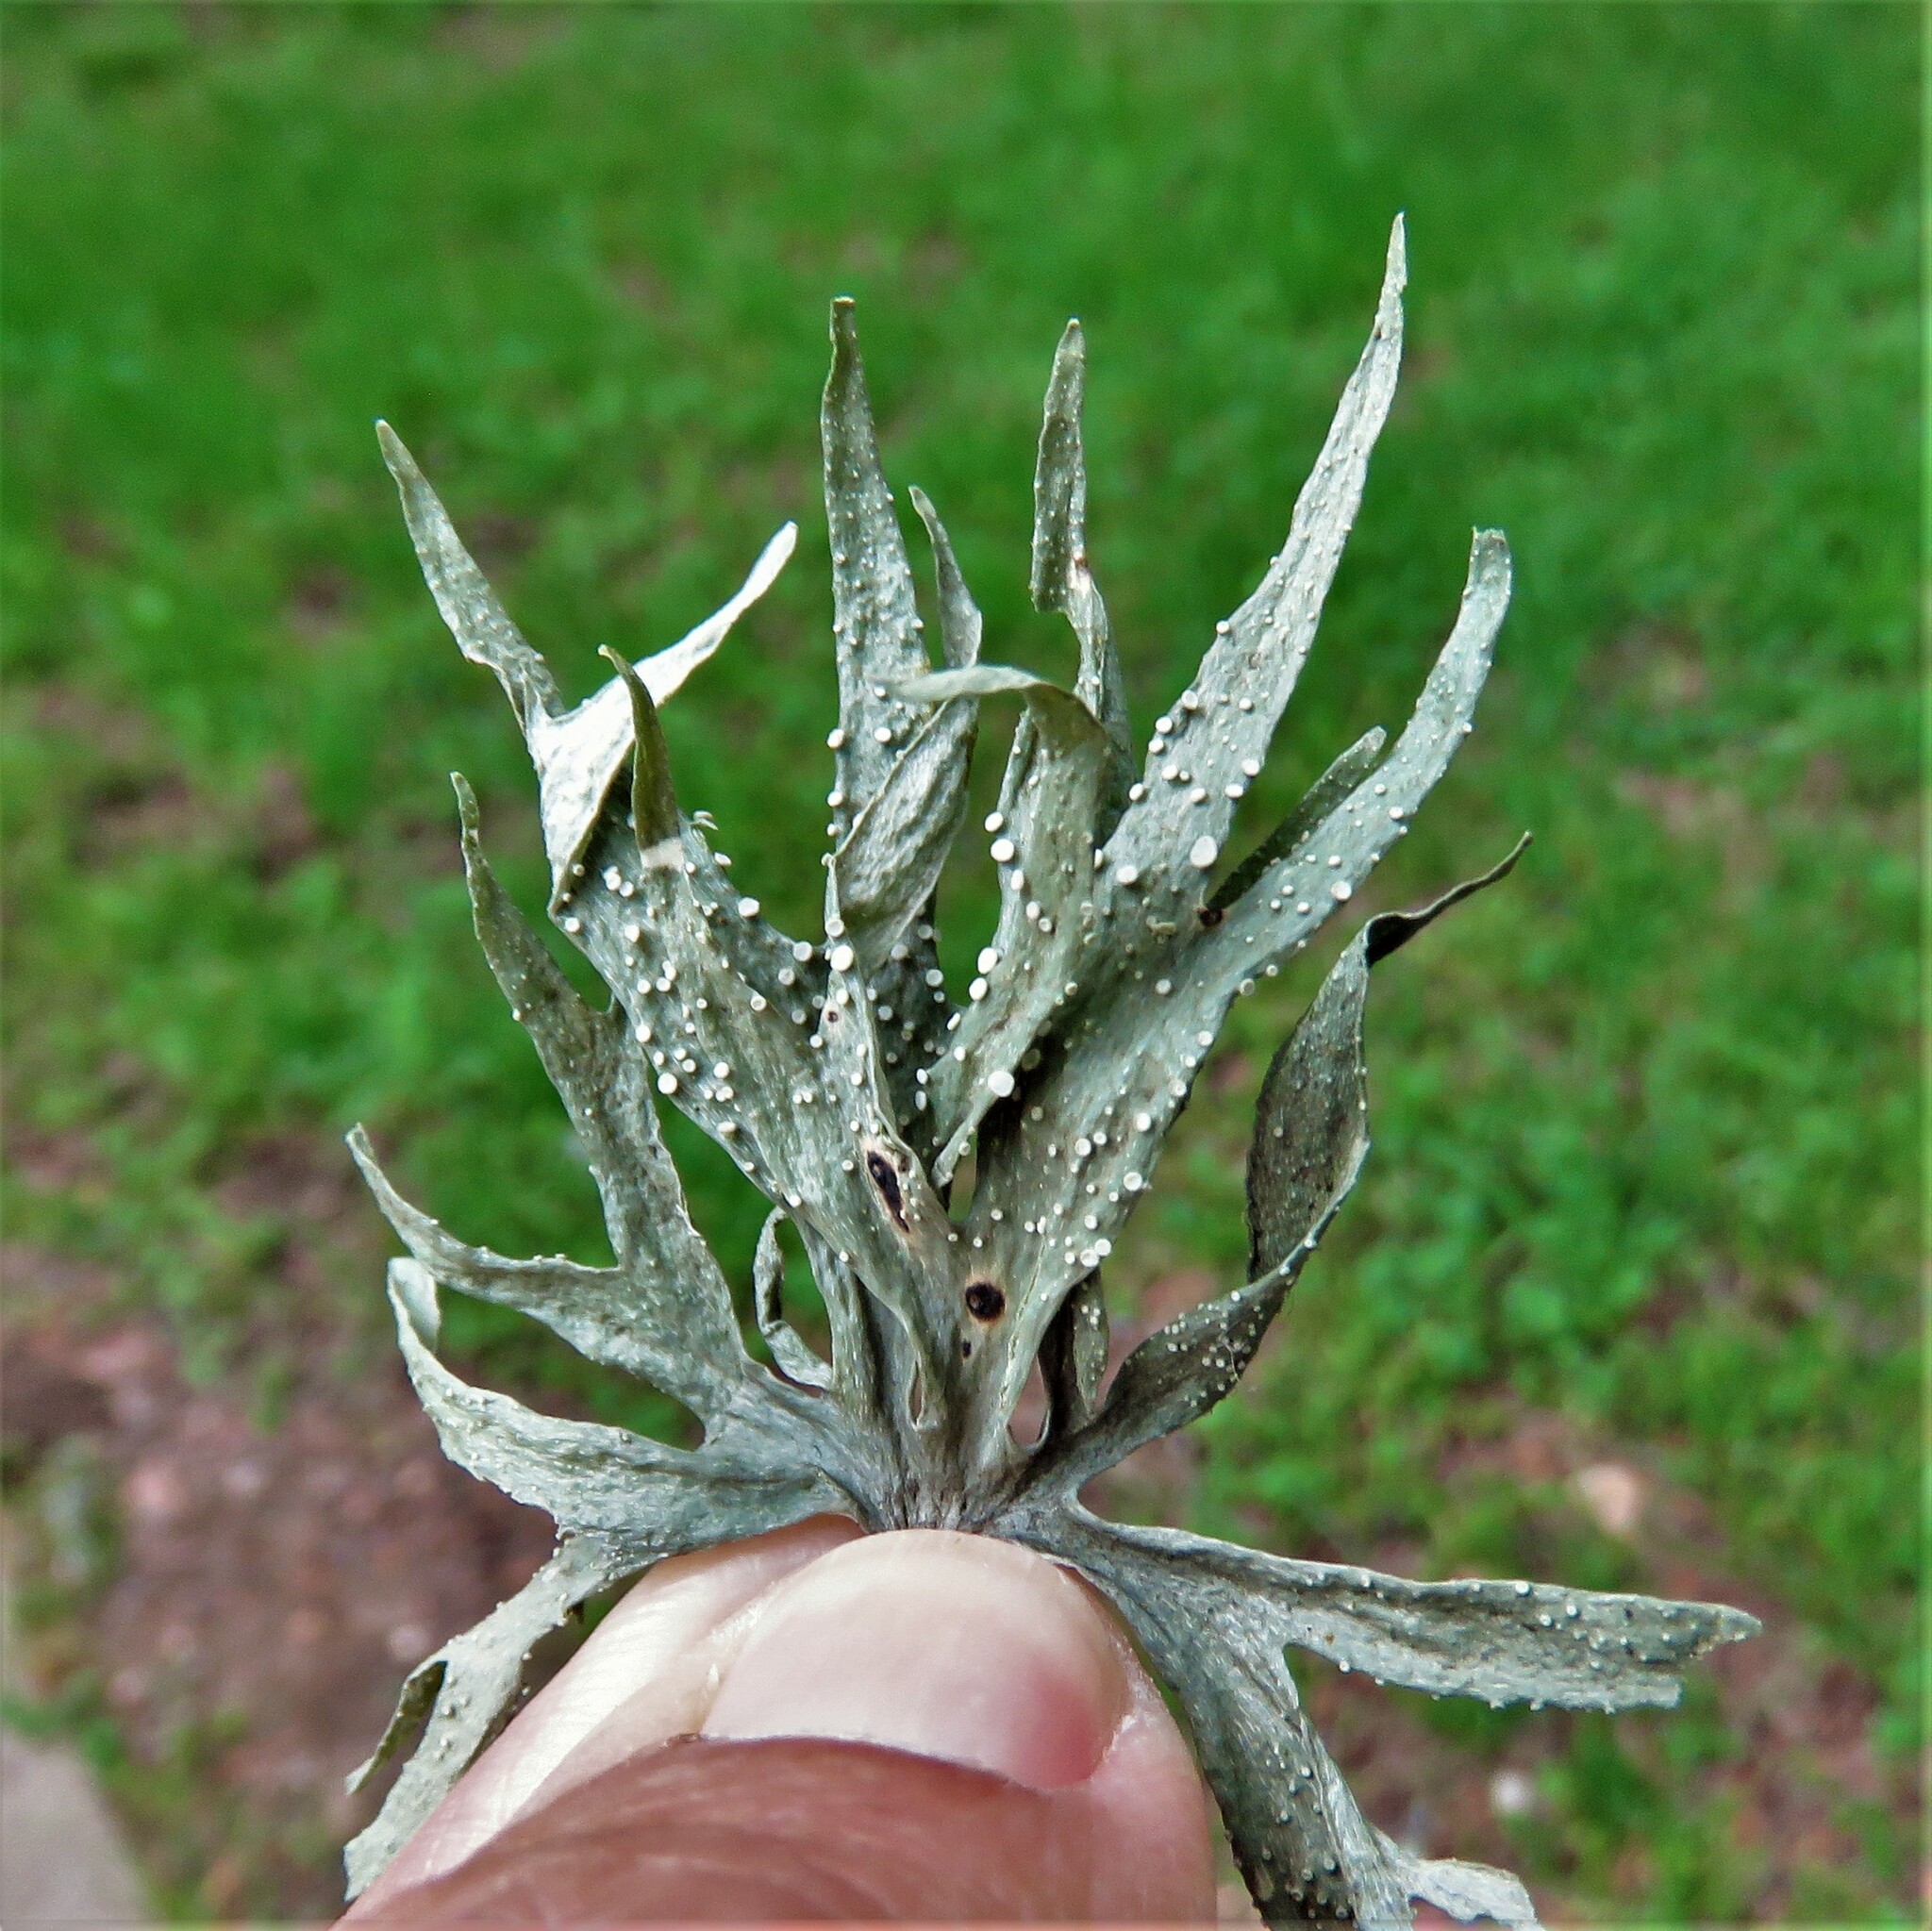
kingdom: Fungi
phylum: Ascomycota
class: Lecanoromycetes
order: Lecanorales
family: Ramalinaceae
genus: Ramalina
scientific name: Ramalina celastri
